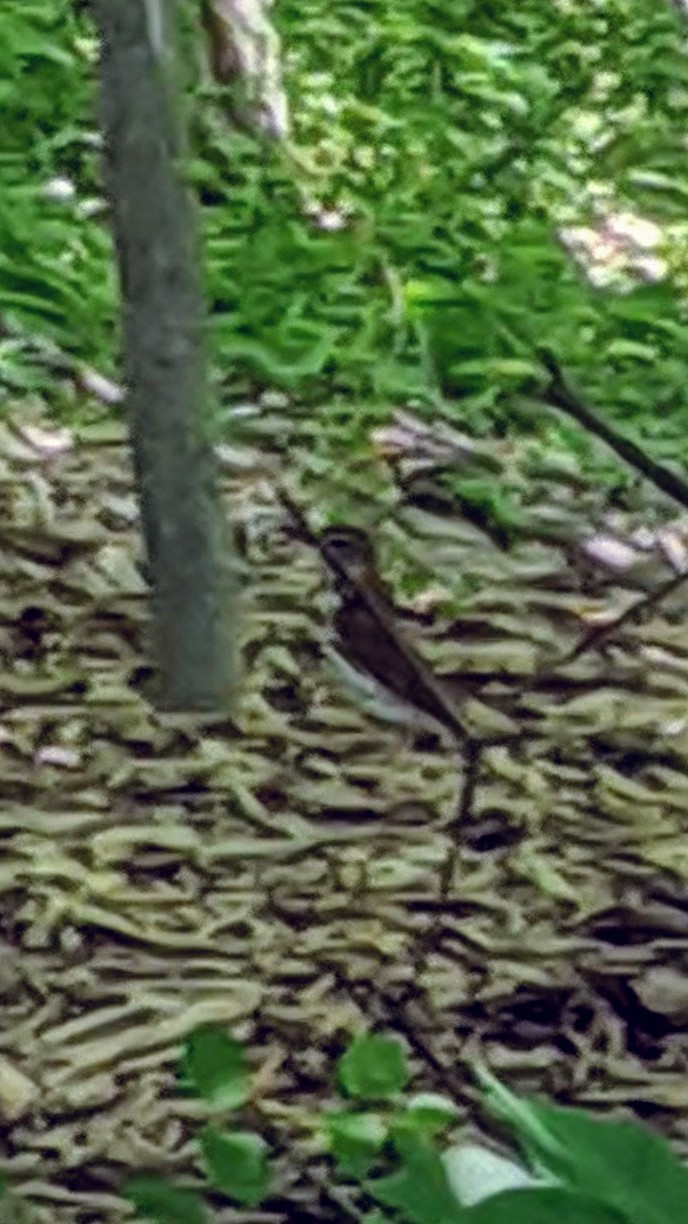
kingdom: Animalia
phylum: Chordata
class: Aves
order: Passeriformes
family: Turdidae
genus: Hylocichla
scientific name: Hylocichla mustelina
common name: Wood thrush
